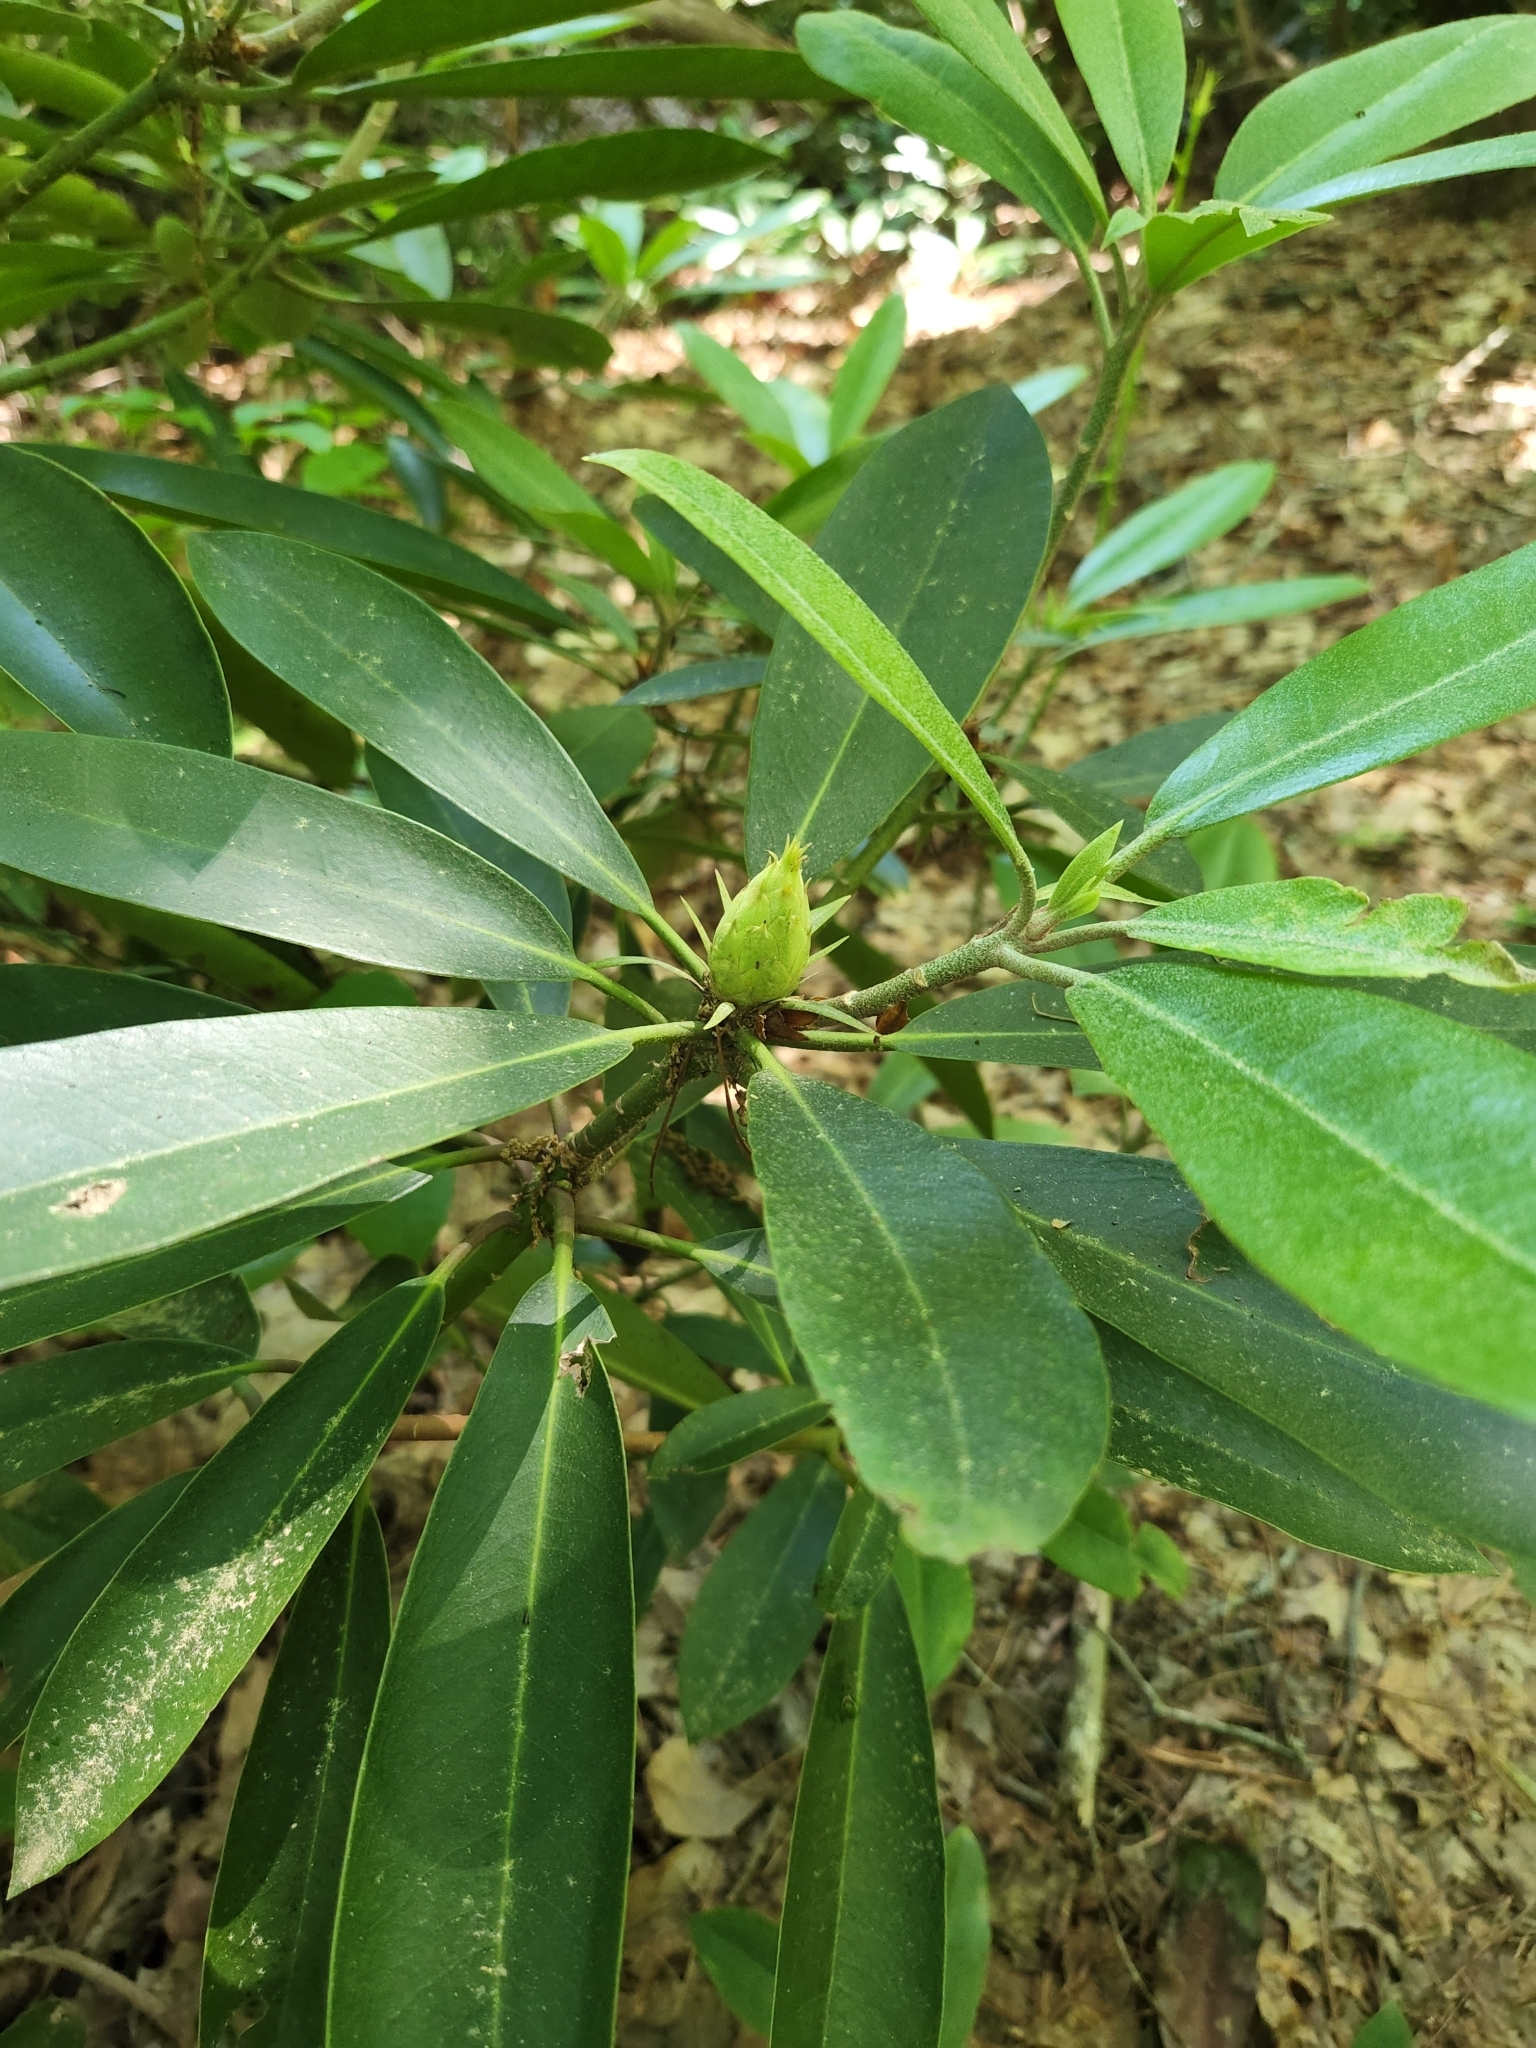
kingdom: Plantae
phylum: Tracheophyta
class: Magnoliopsida
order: Ericales
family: Ericaceae
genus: Rhododendron
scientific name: Rhododendron maximum
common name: Great rhododendron
